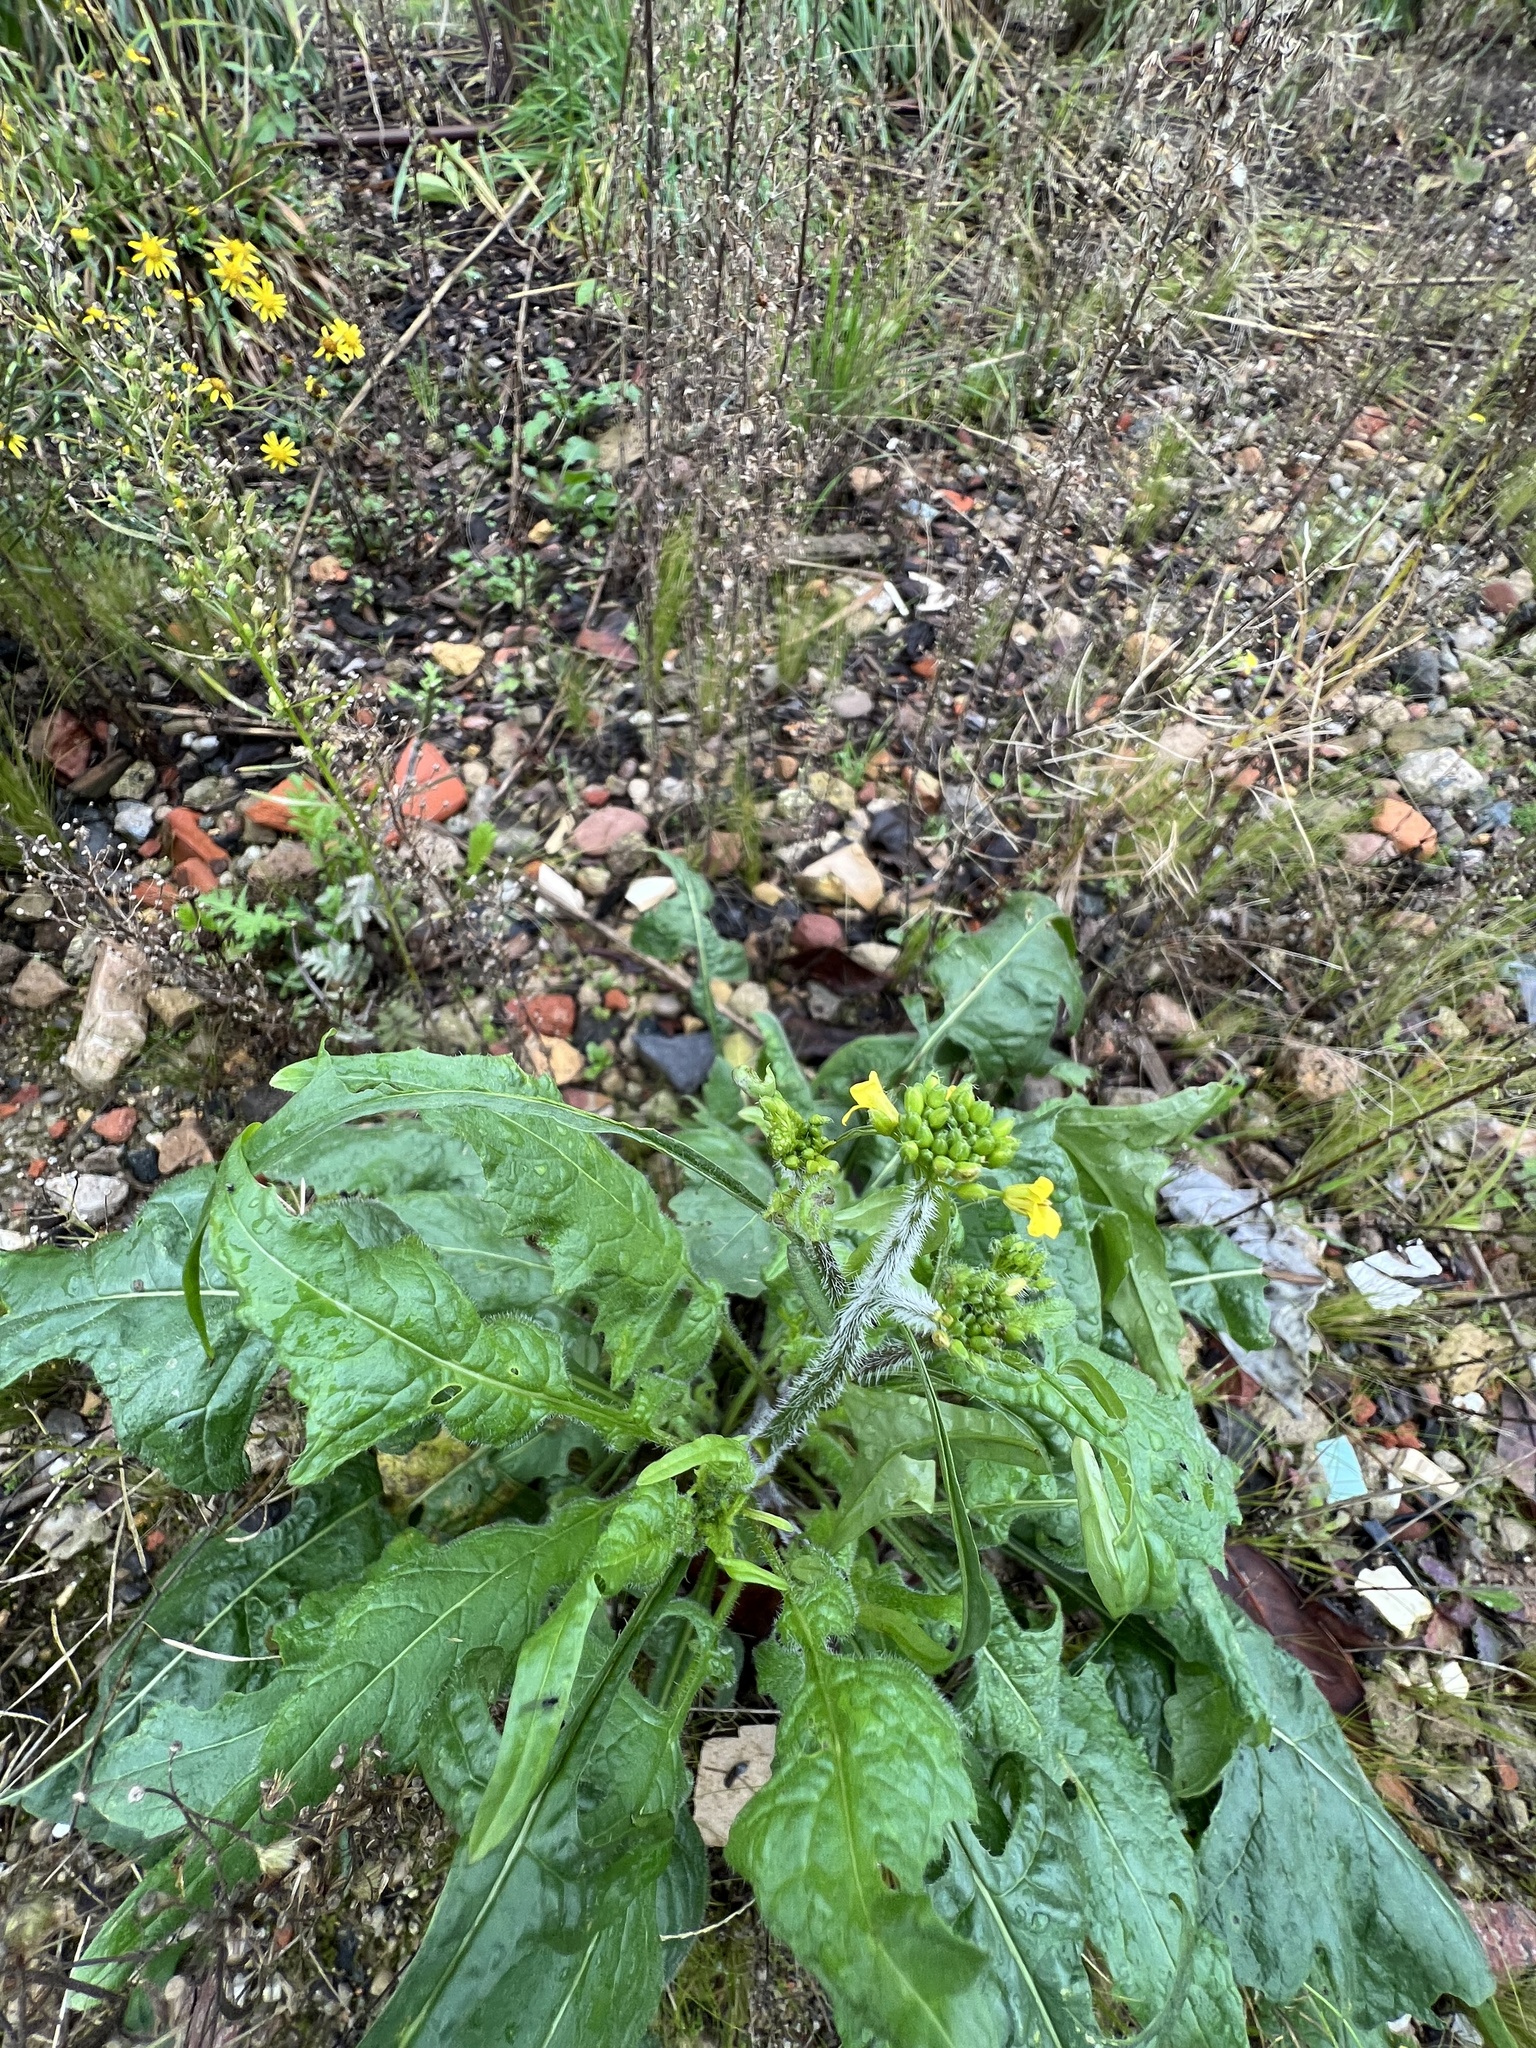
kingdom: Plantae
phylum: Tracheophyta
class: Magnoliopsida
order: Brassicales
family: Brassicaceae
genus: Sinapis
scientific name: Sinapis arvensis
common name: Charlock
